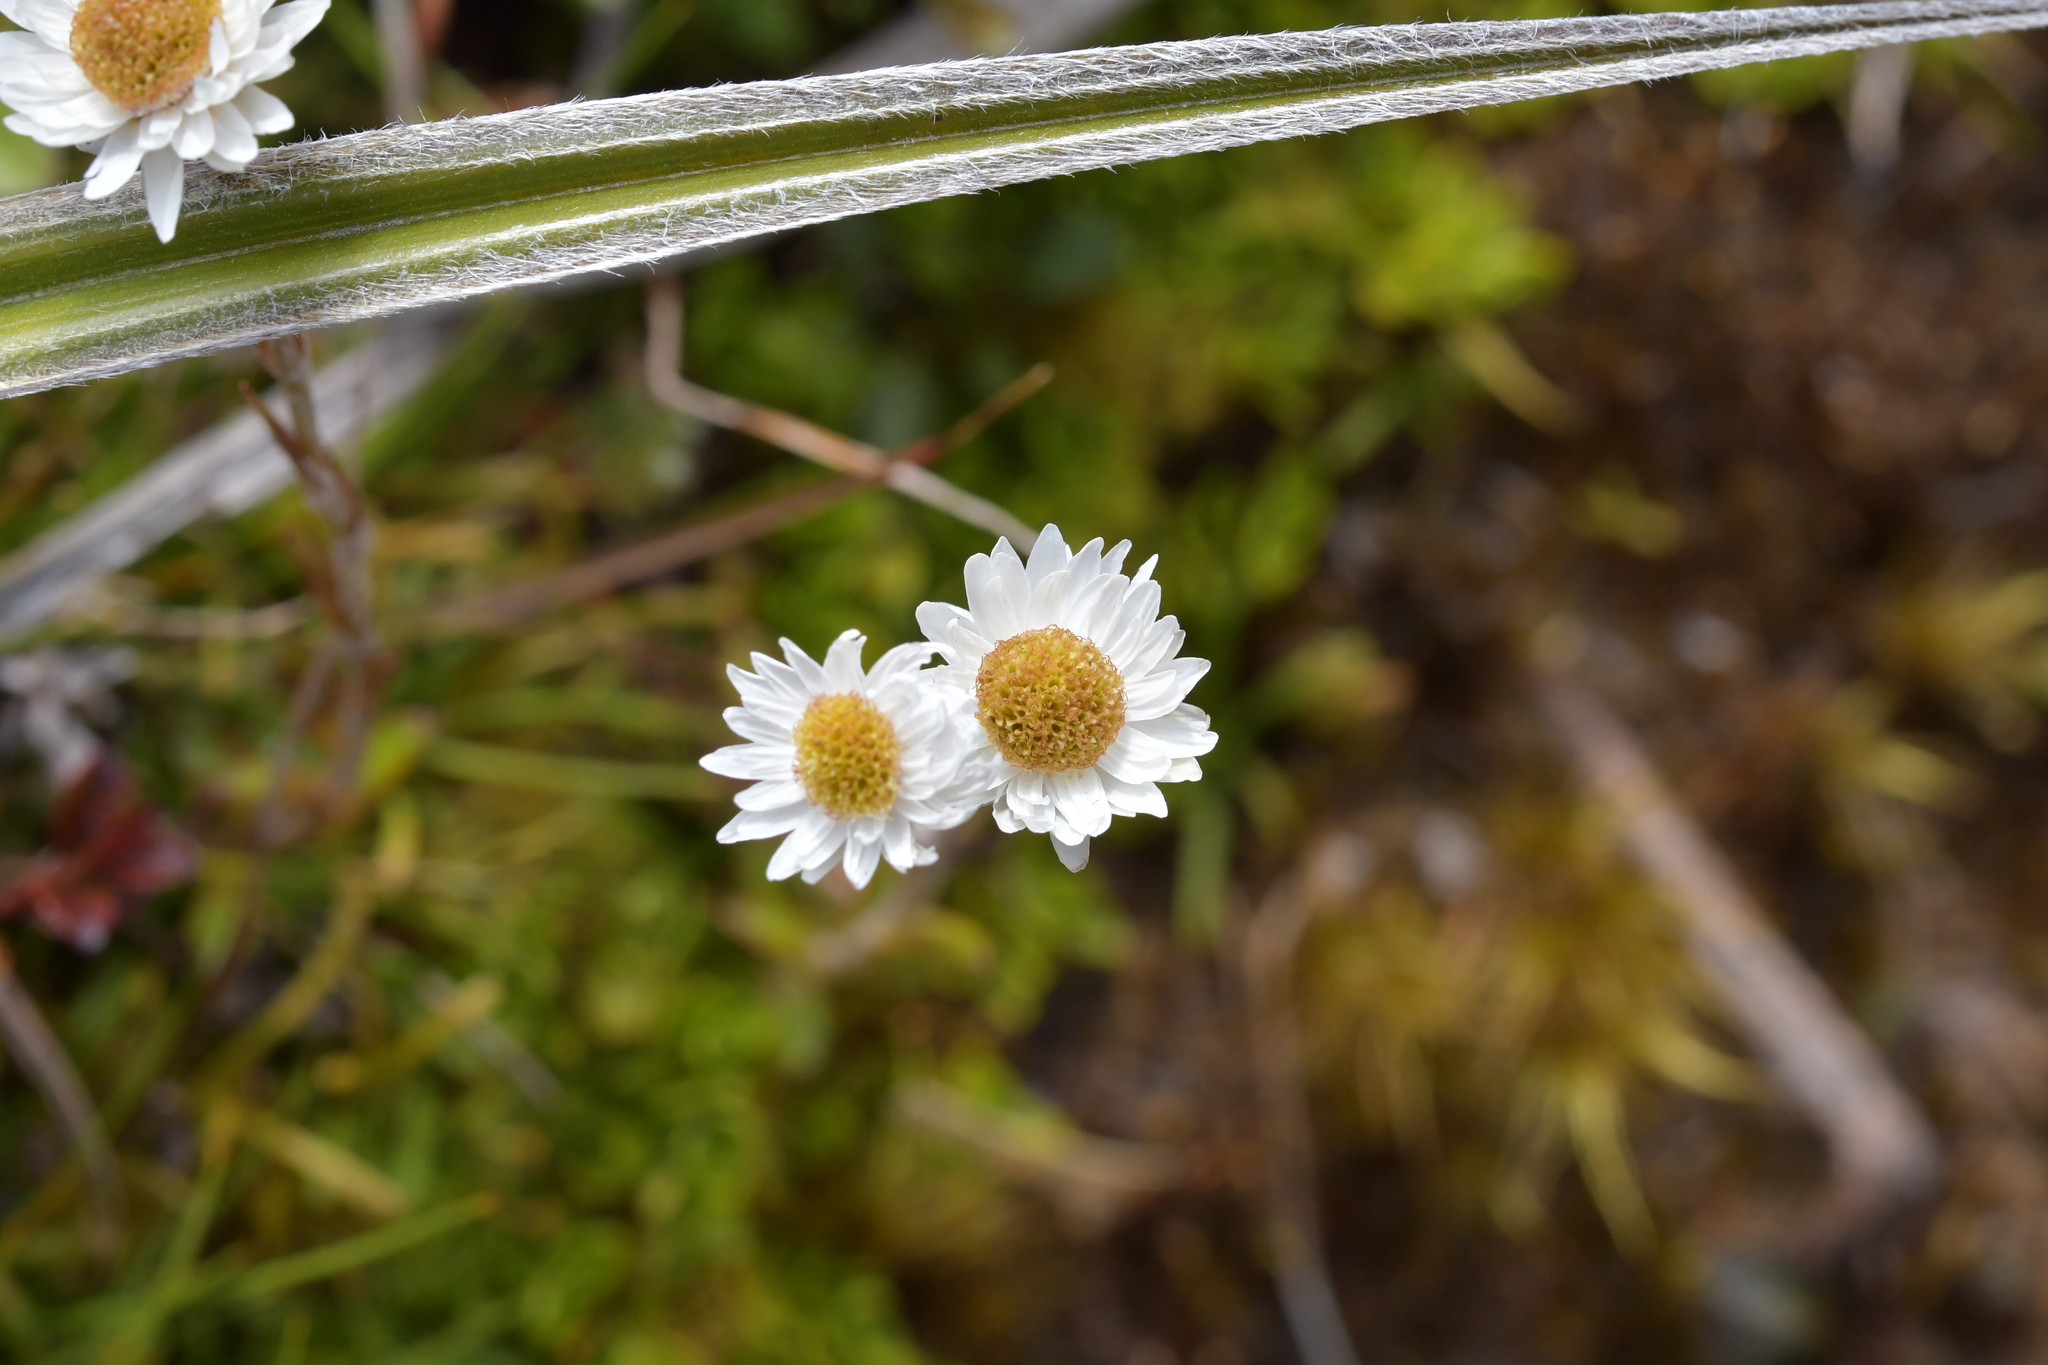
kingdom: Plantae
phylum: Tracheophyta
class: Magnoliopsida
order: Asterales
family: Asteraceae
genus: Anaphalioides
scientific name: Anaphalioides bellidioides
